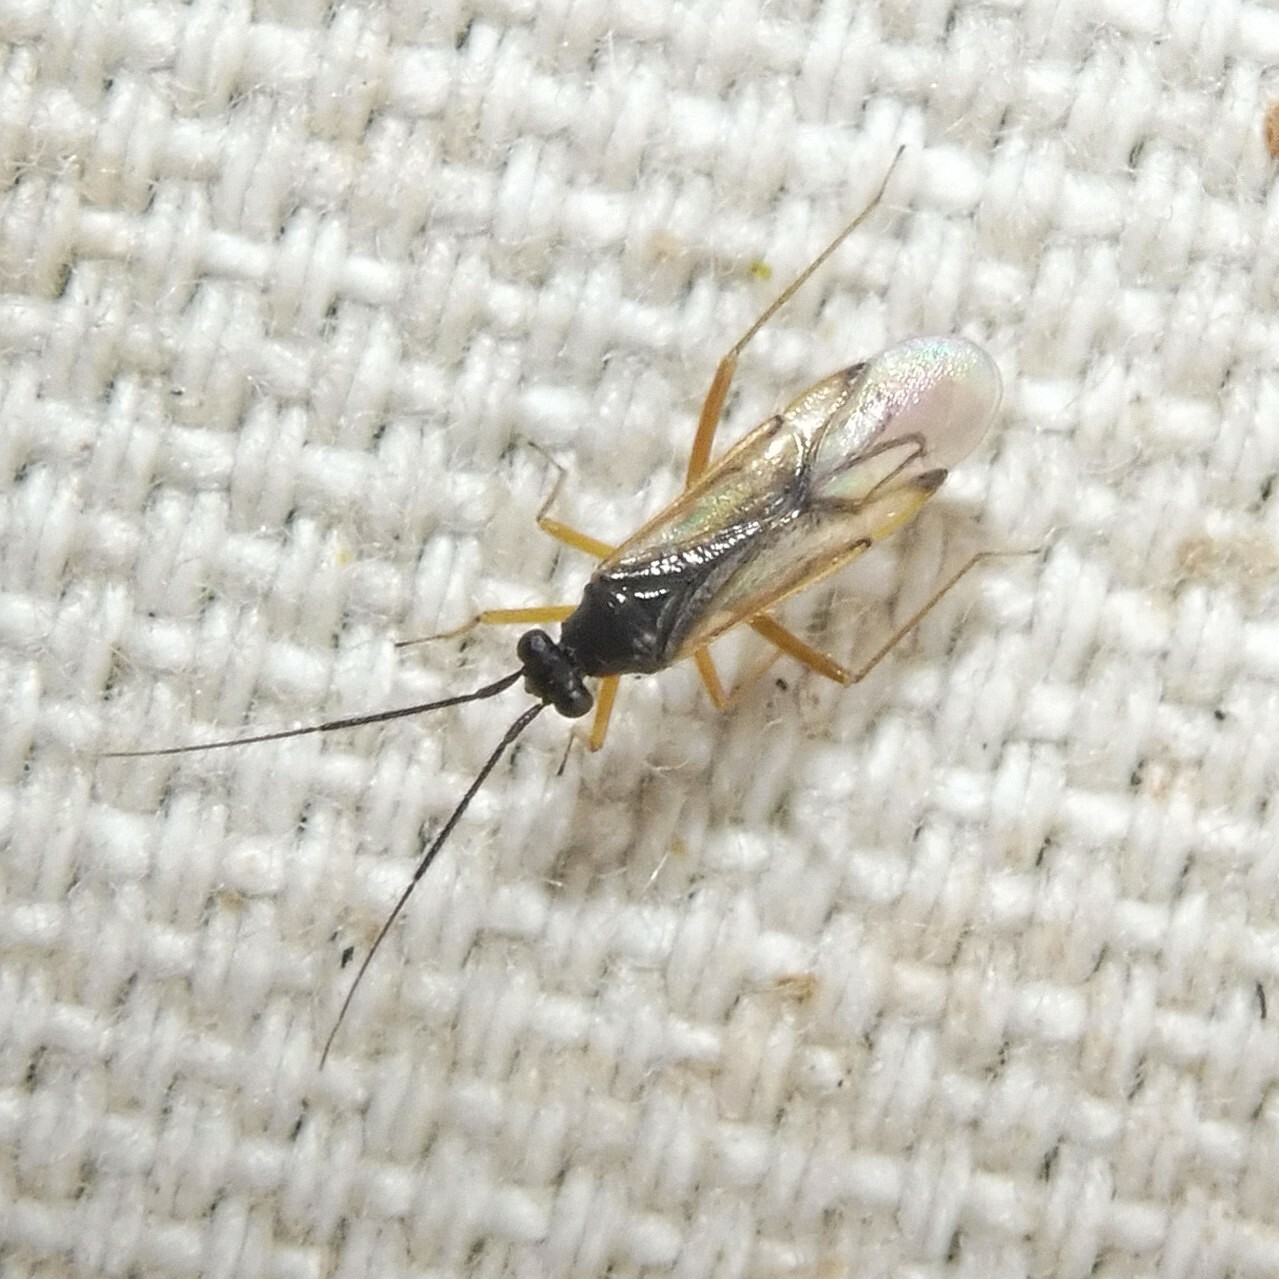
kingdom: Animalia
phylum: Arthropoda
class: Insecta
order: Hemiptera
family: Miridae
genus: Mecomma
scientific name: Mecomma ambulans
